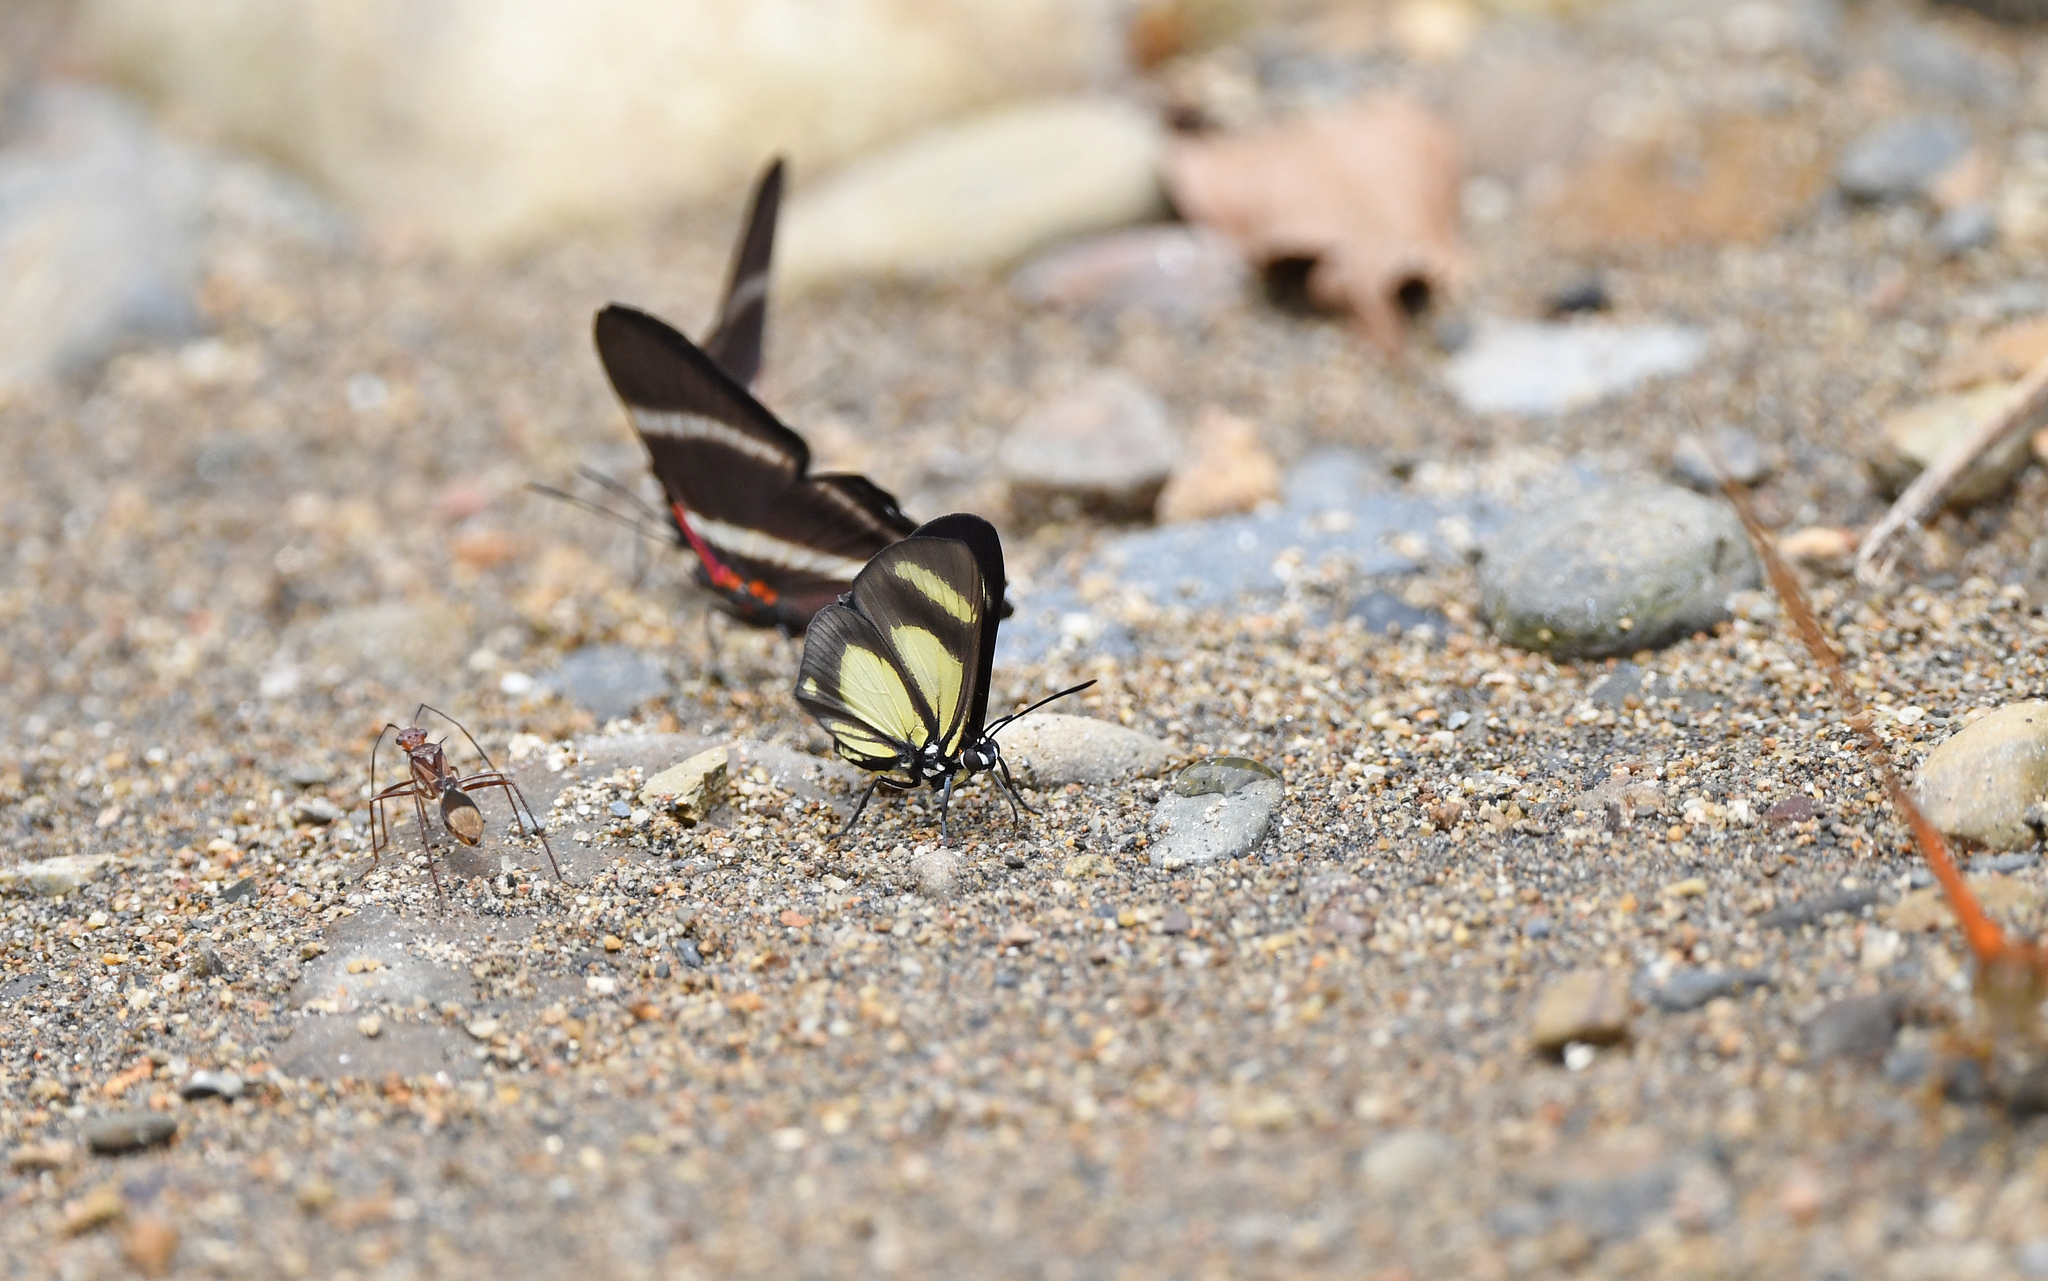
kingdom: Animalia
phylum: Arthropoda
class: Insecta
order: Lepidoptera
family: Riodinidae
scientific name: Riodinidae
